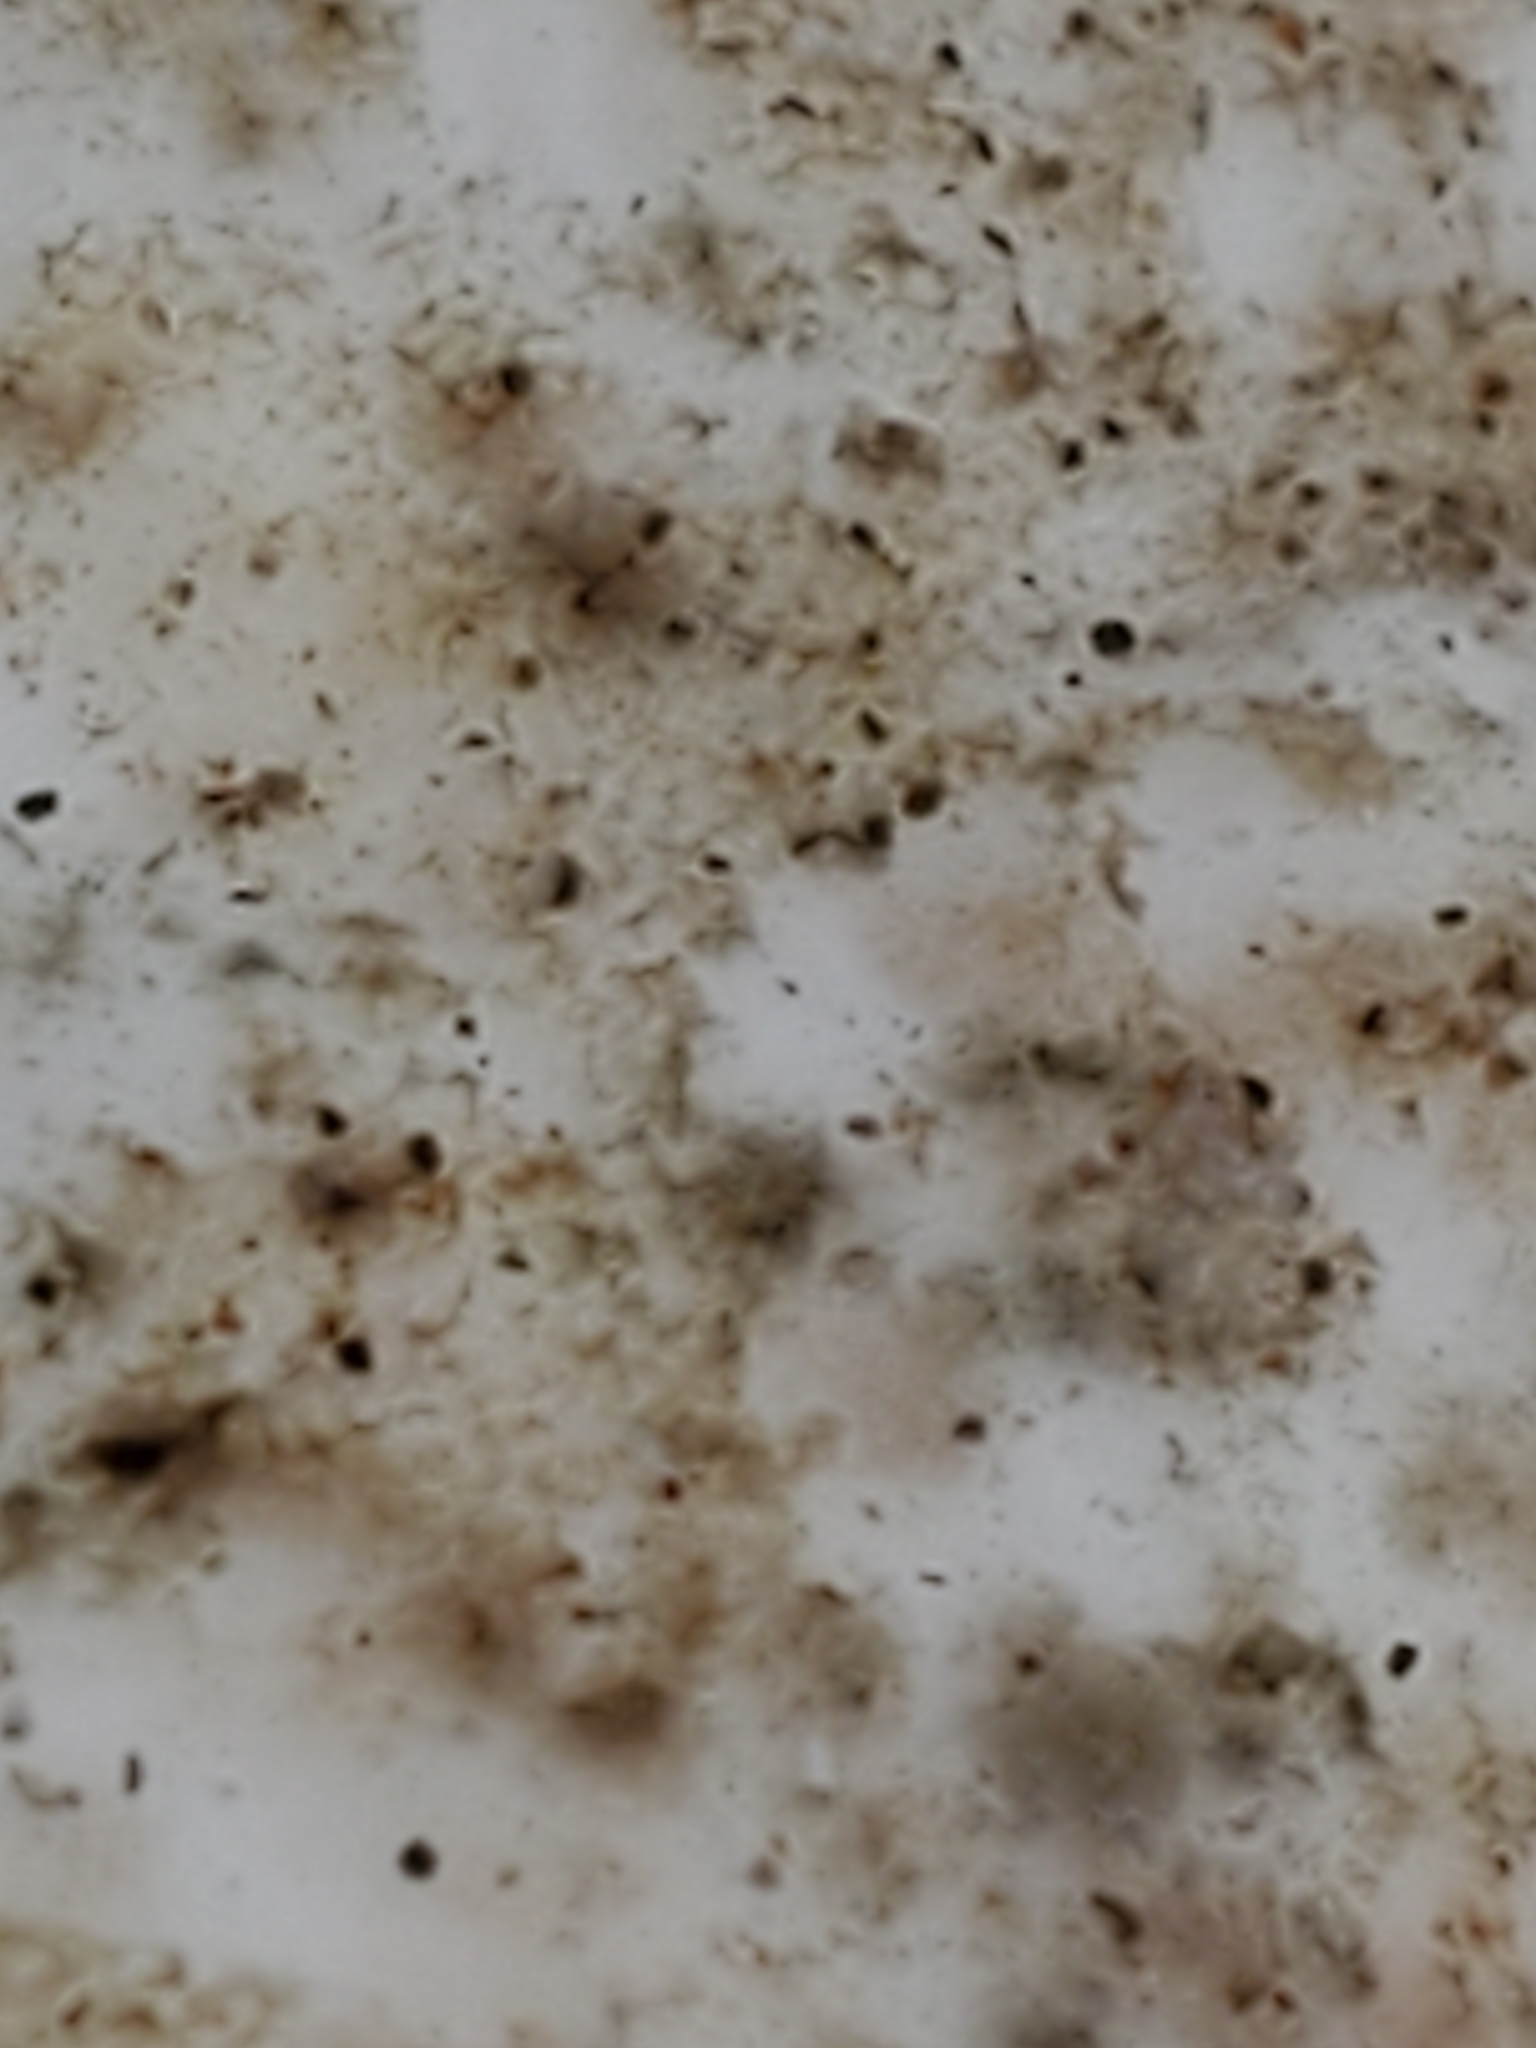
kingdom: Fungi
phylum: Basidiomycota
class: Agaricomycetes
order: Polyporales
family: Laetiporaceae
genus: Laetiporus
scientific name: Laetiporus sulphureus
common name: Chicken of the woods
